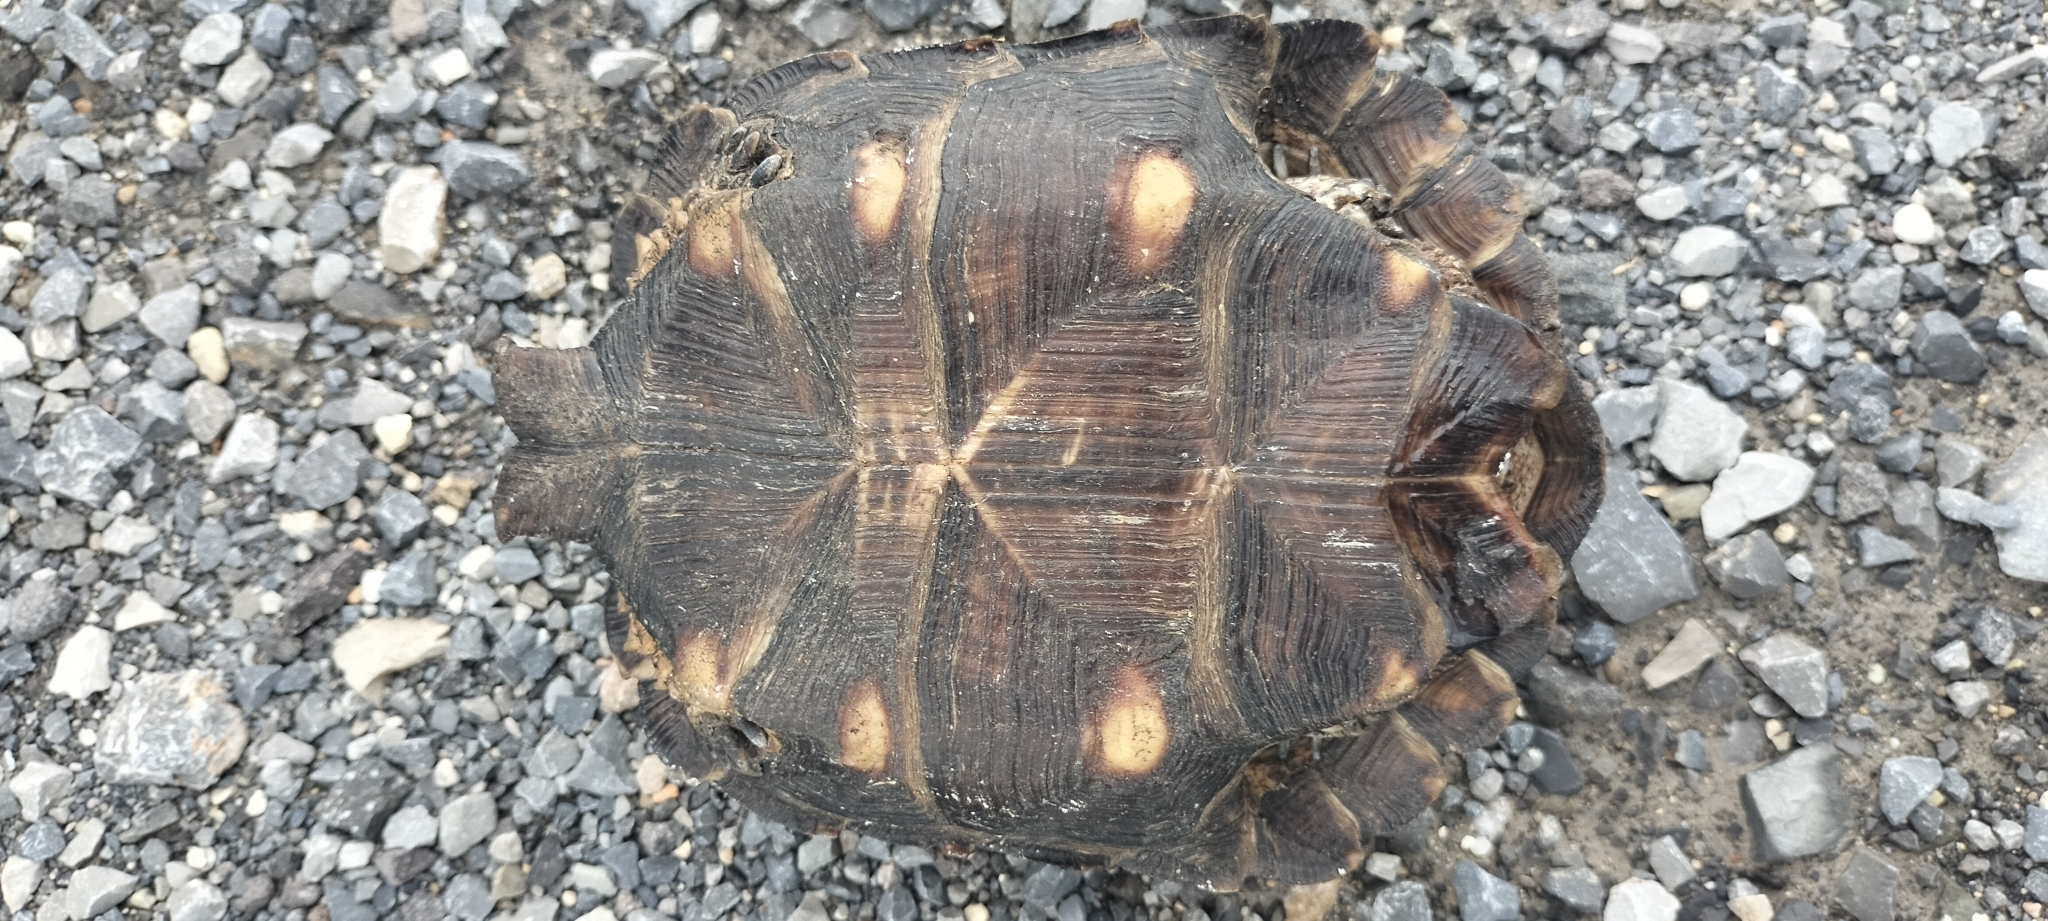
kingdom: Animalia
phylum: Chordata
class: Testudines
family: Testudinidae
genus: Gopherus
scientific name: Gopherus berlandieri
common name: Texas (gopher )tortoise
